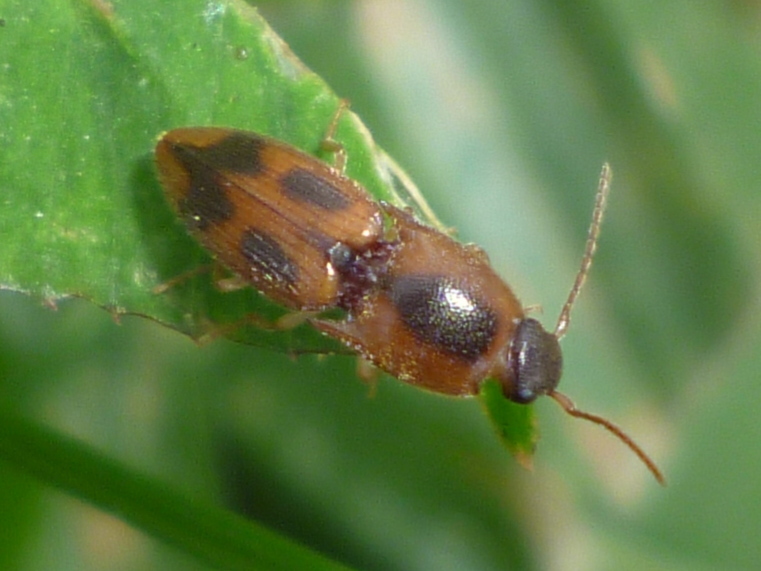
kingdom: Animalia
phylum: Arthropoda
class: Insecta
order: Coleoptera
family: Elateridae
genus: Aeolus
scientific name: Aeolus mellillus
